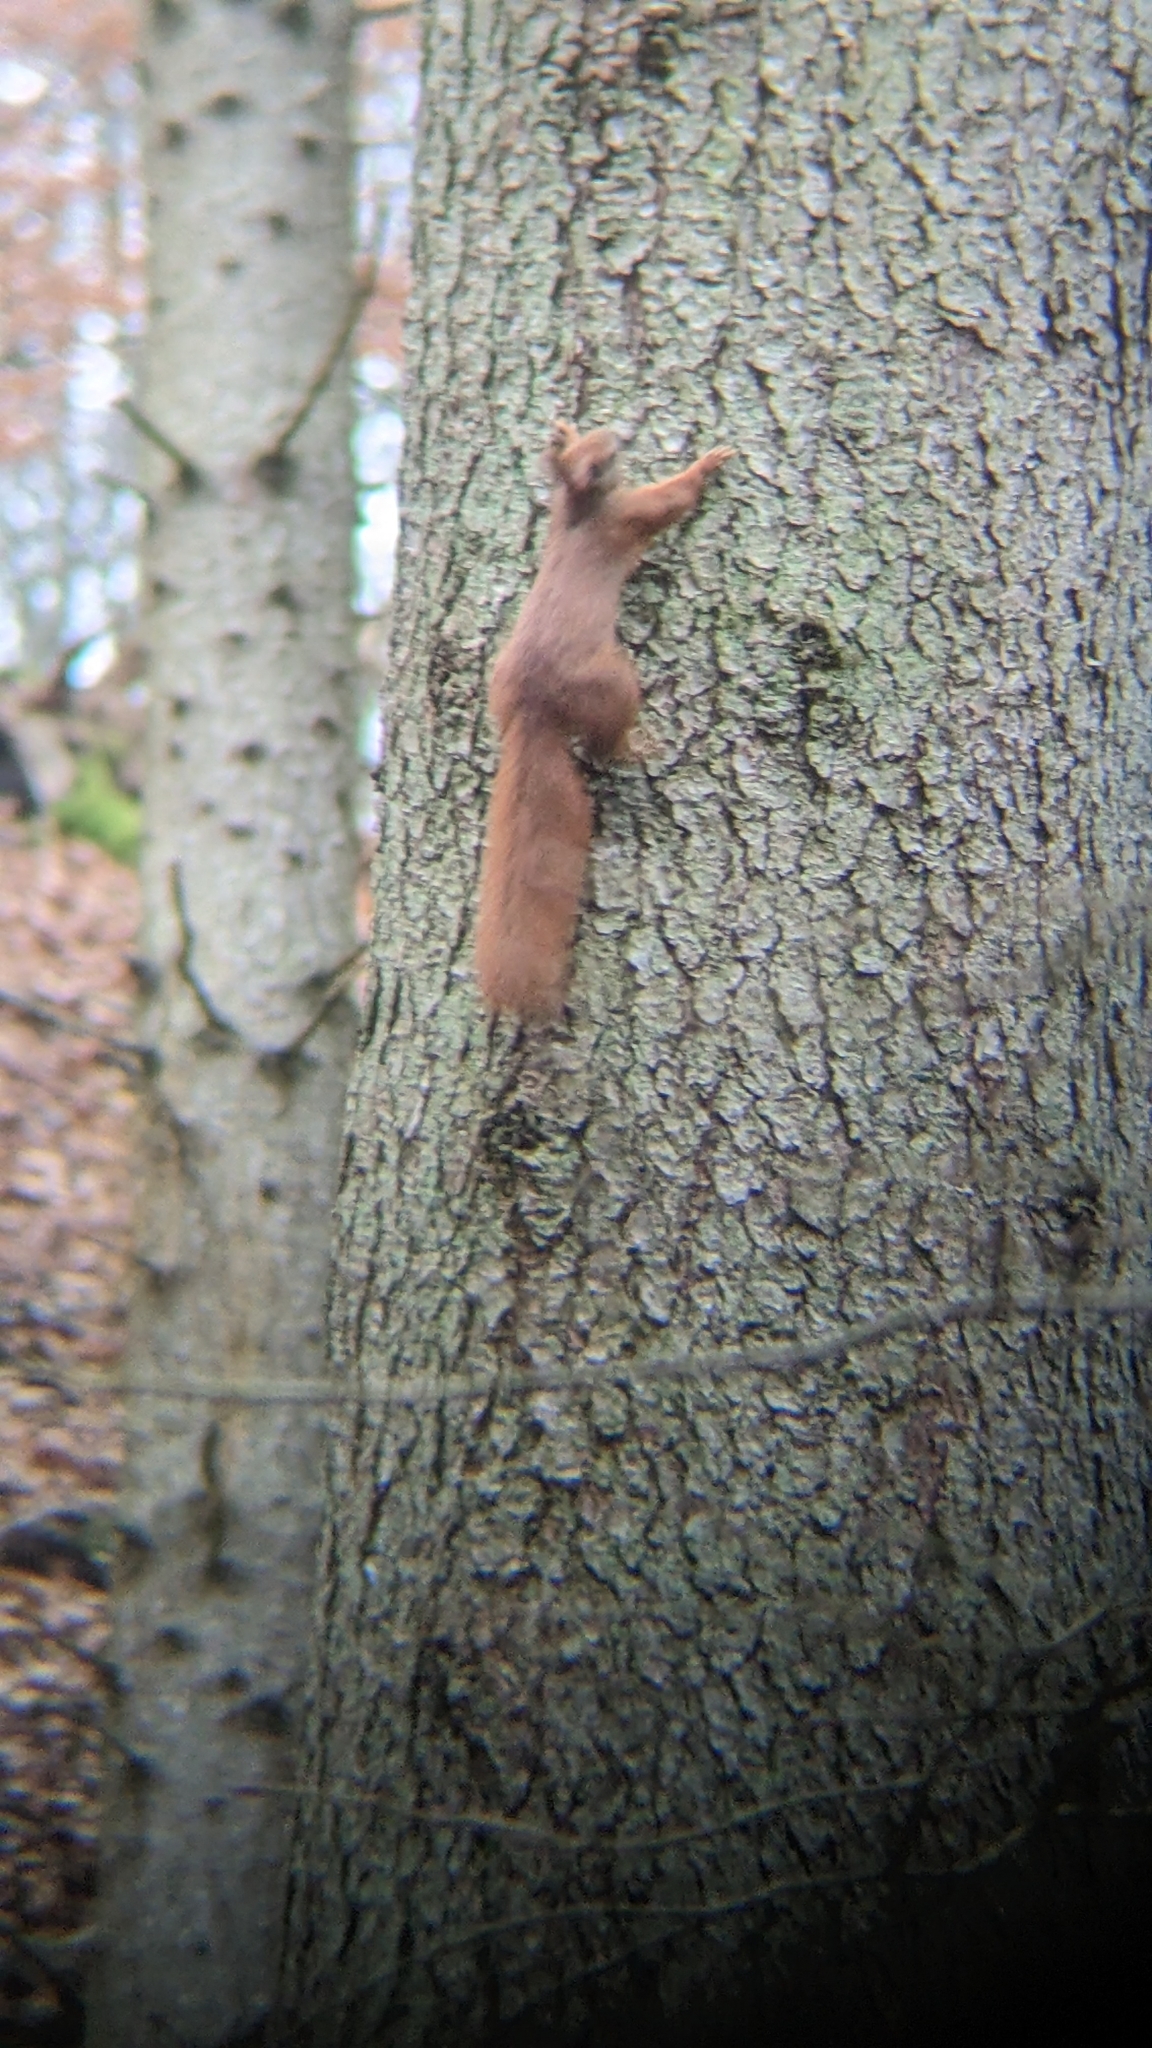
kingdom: Animalia
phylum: Chordata
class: Mammalia
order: Rodentia
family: Sciuridae
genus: Sciurus
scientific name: Sciurus vulgaris
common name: Eurasian red squirrel
